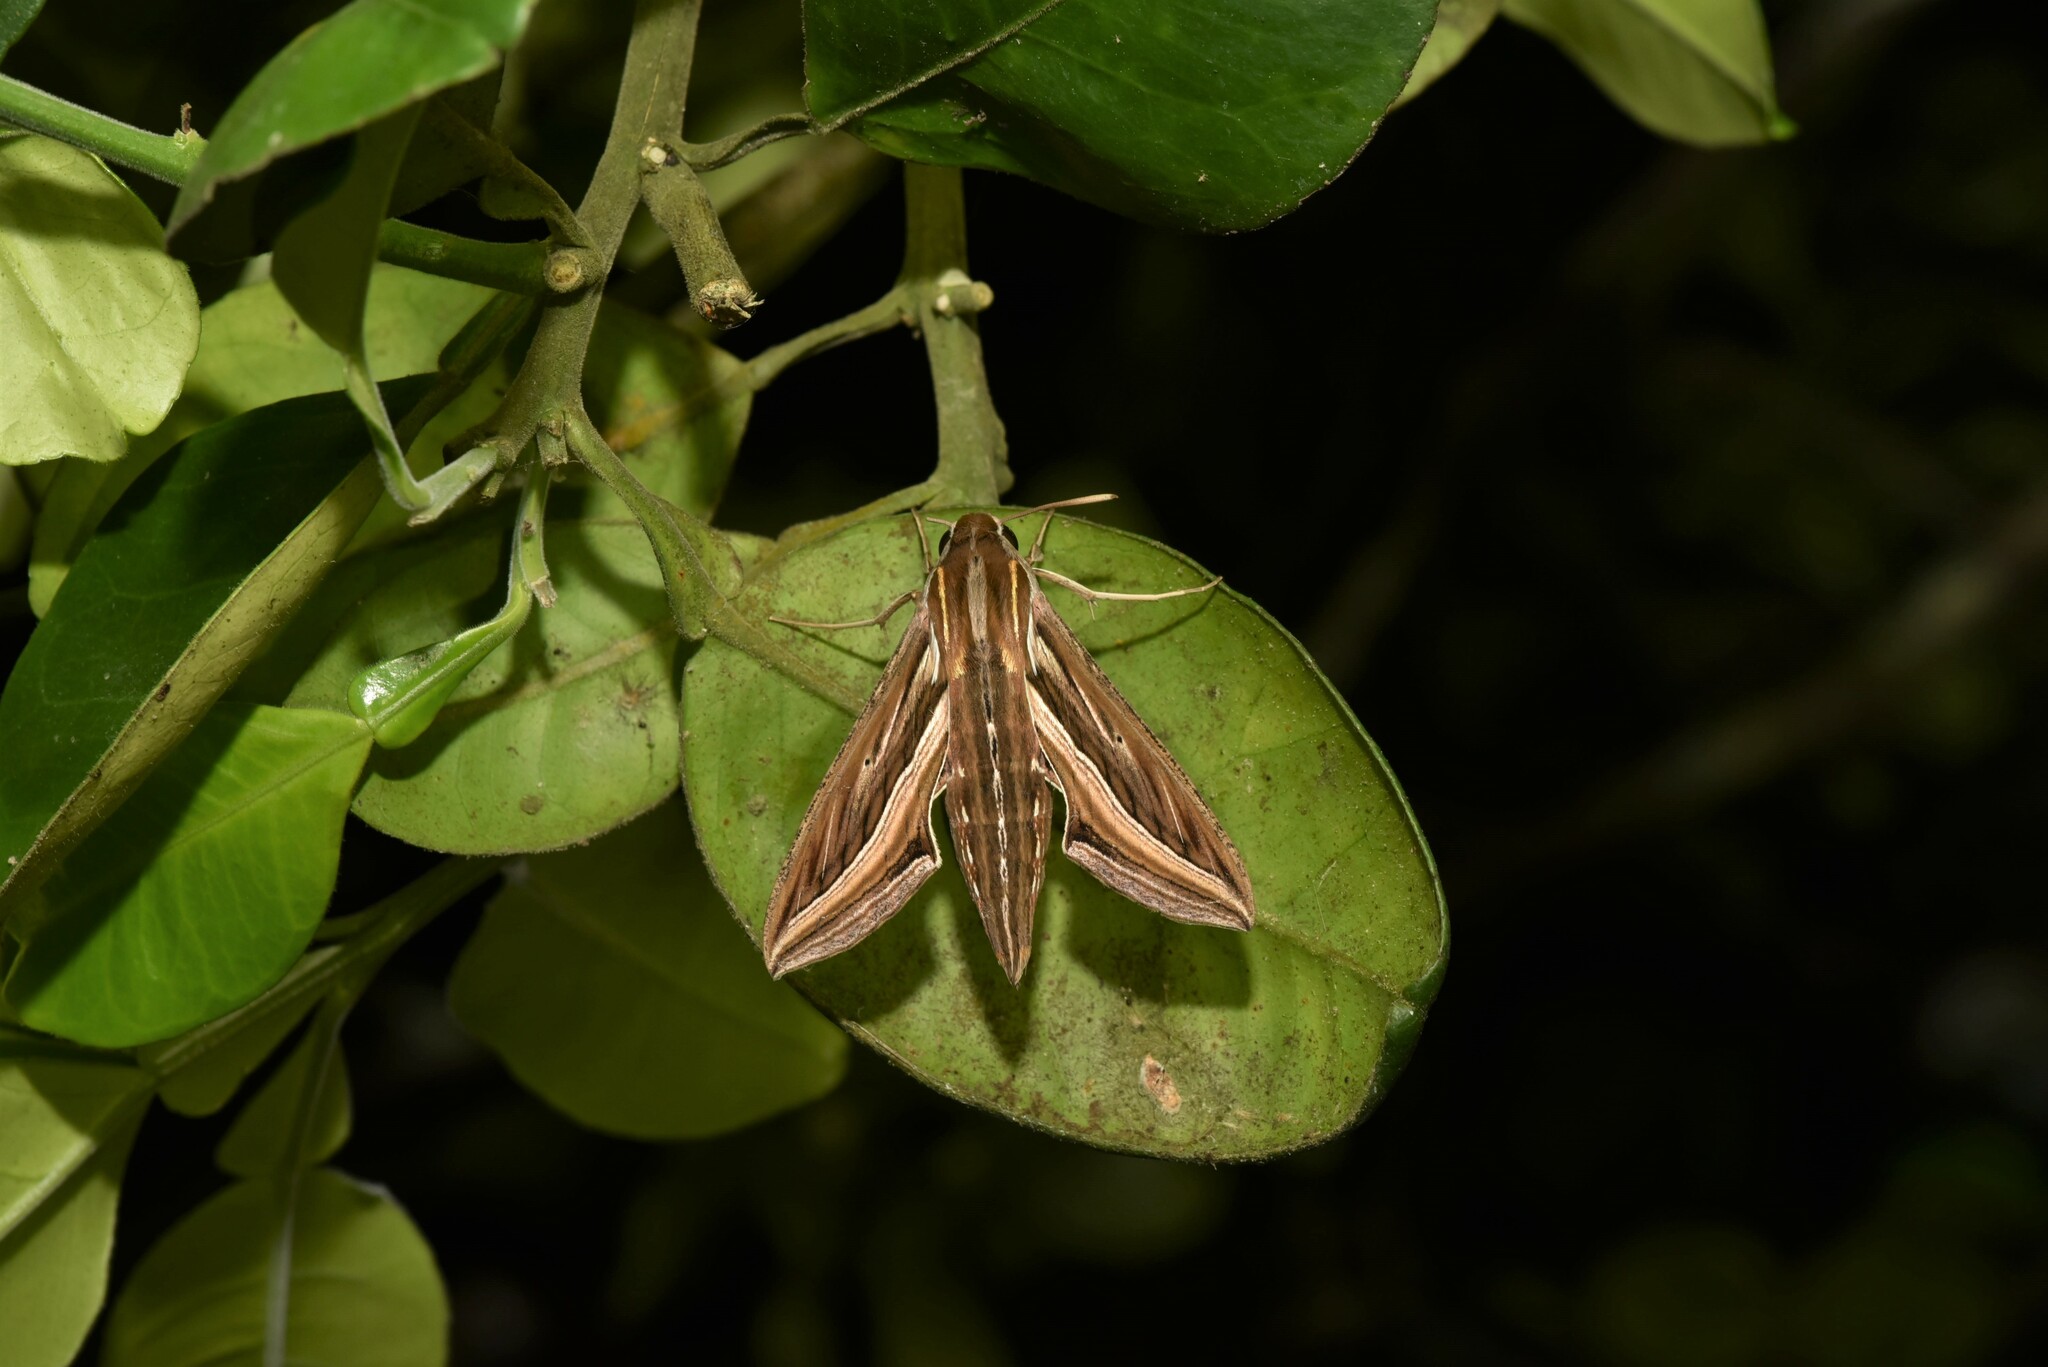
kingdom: Animalia
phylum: Arthropoda
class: Insecta
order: Lepidoptera
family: Sphingidae
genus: Hippotion
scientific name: Hippotion celerio
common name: Silver-striped hawk-moth
